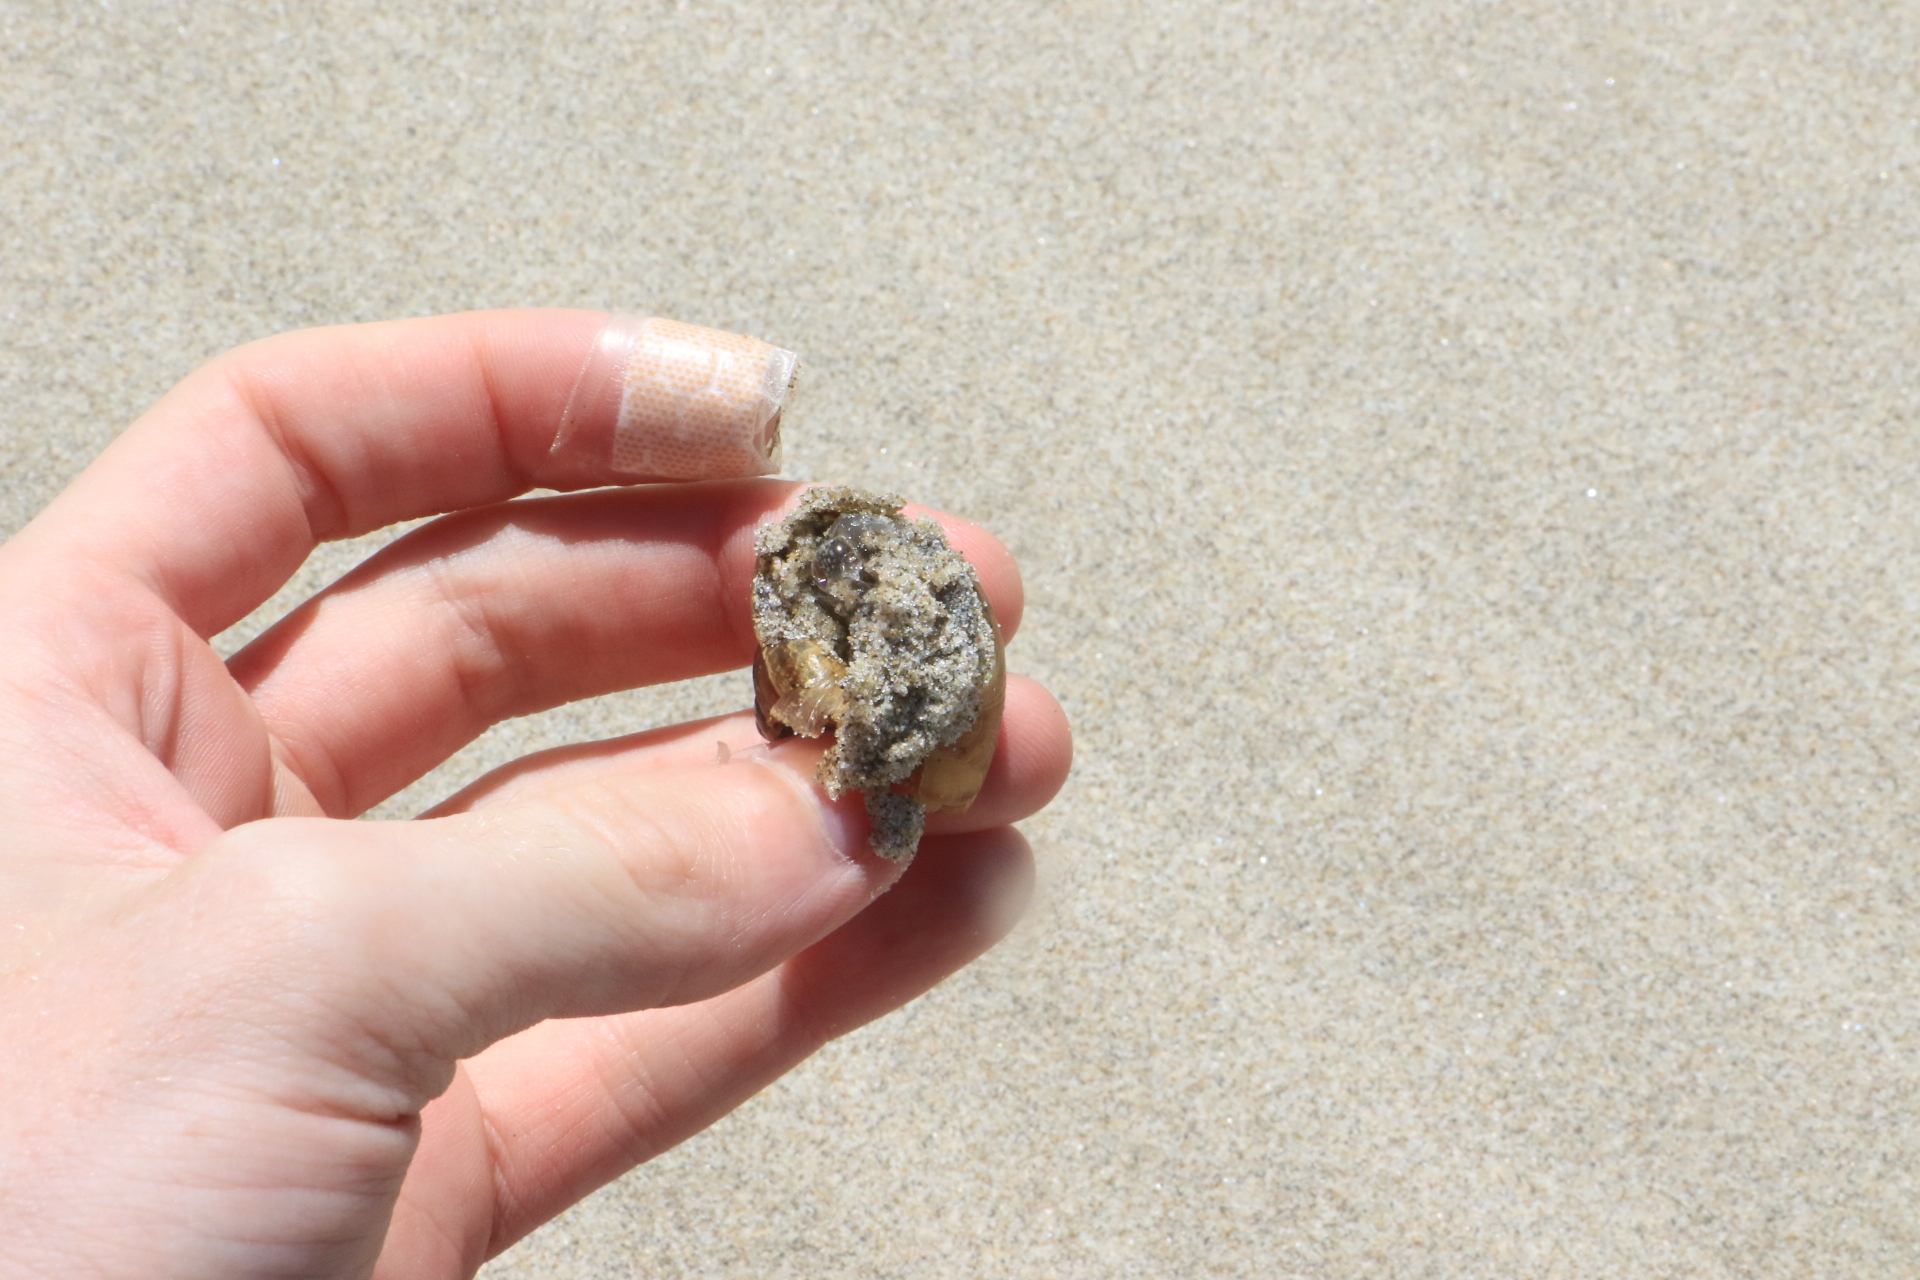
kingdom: Animalia
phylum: Mollusca
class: Gastropoda
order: Stylommatophora
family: Helicidae
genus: Cornu
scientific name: Cornu aspersum
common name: Brown garden snail
